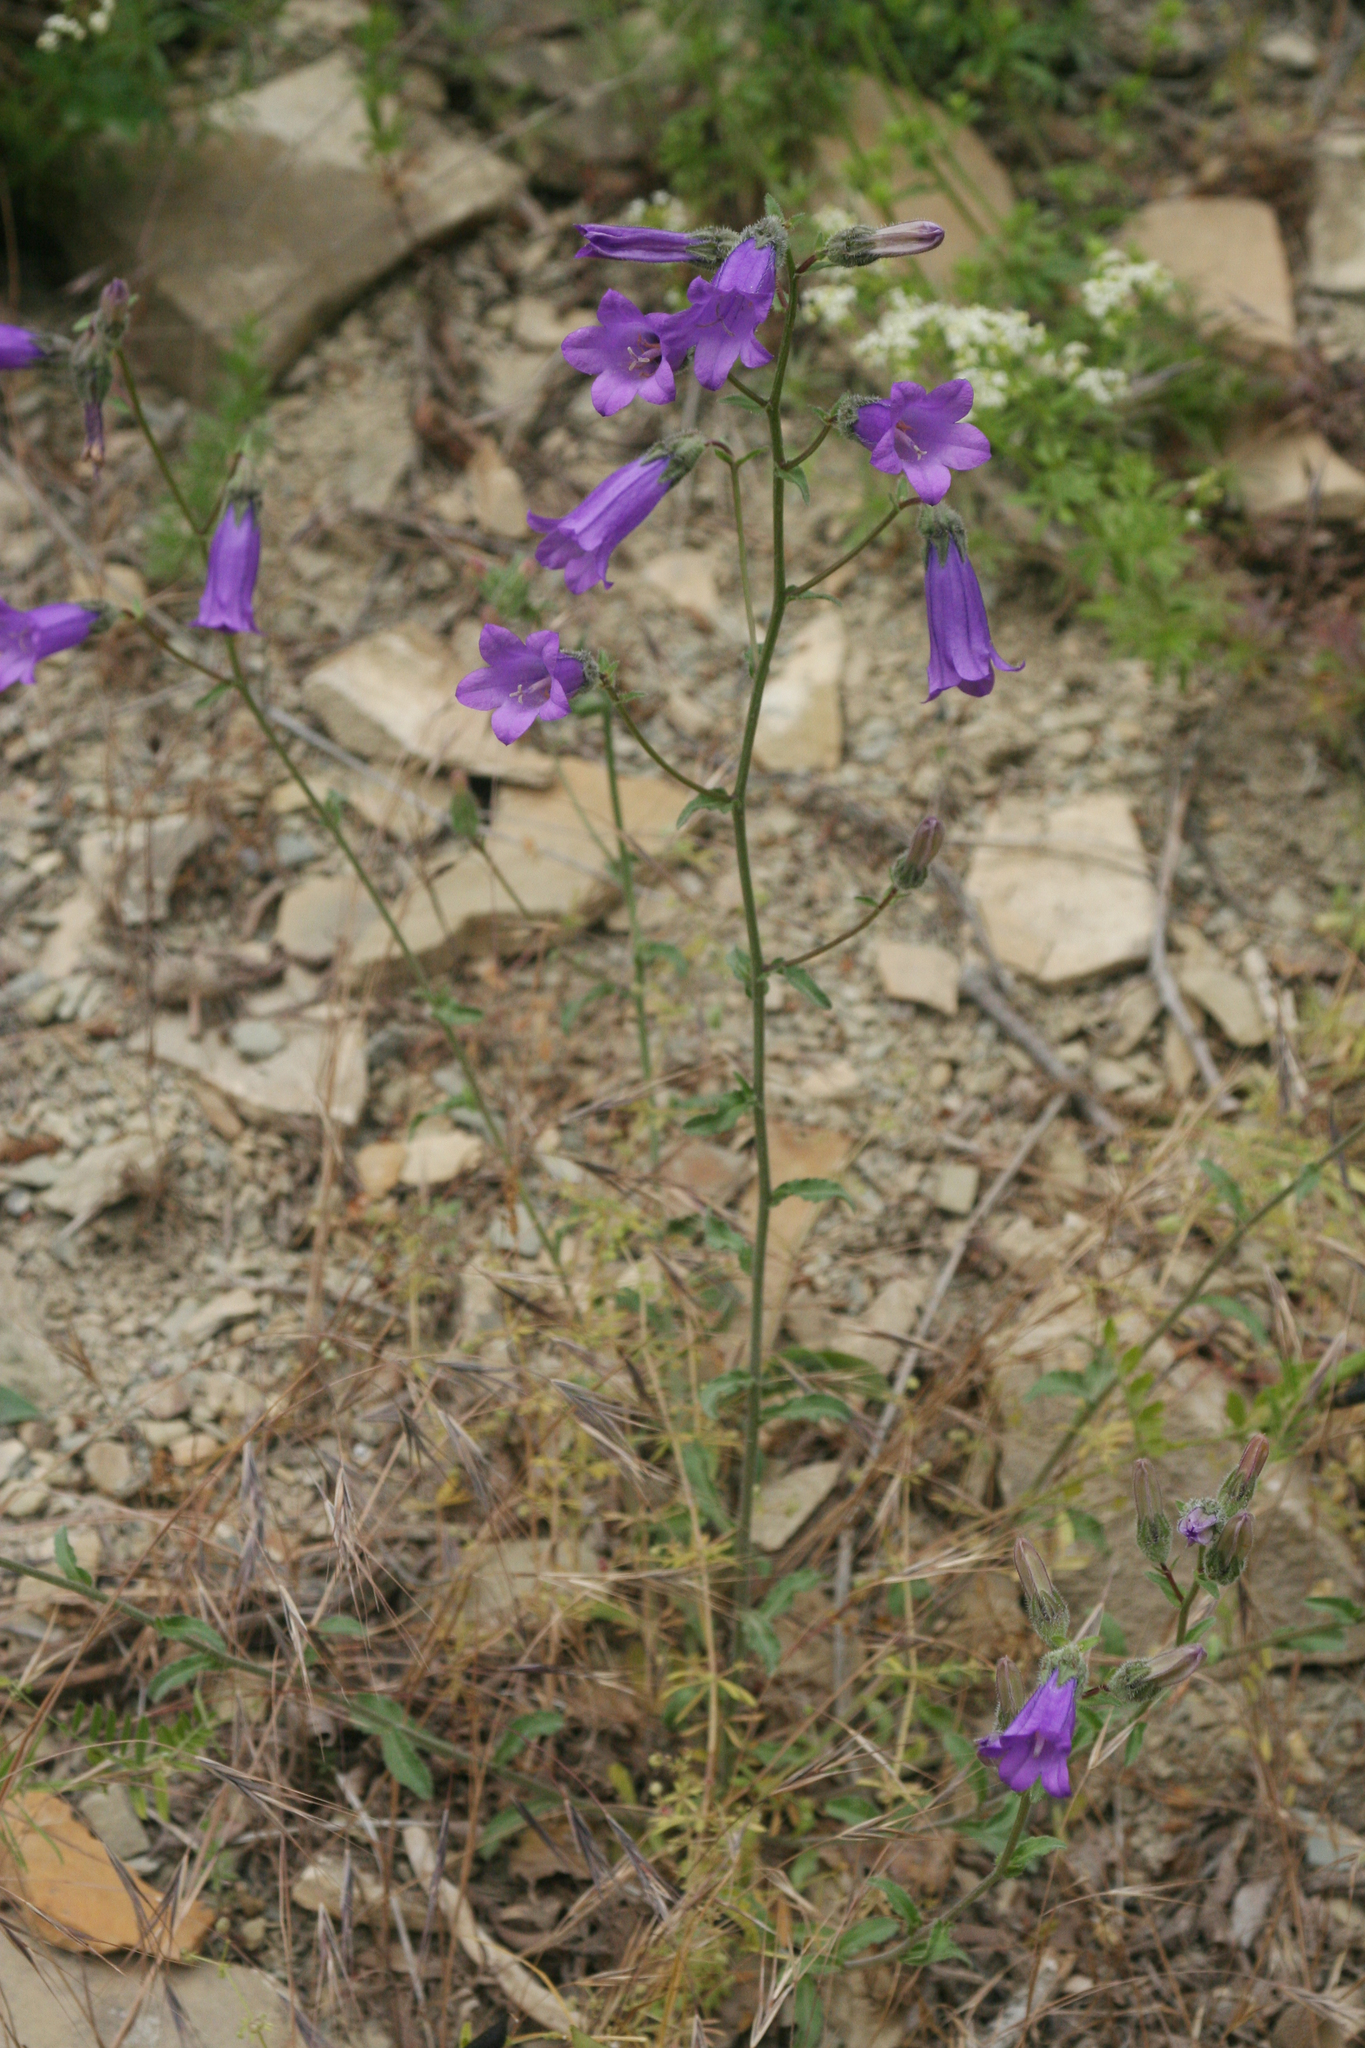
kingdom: Plantae
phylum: Tracheophyta
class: Magnoliopsida
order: Asterales
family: Campanulaceae
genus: Campanula
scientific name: Campanula komarovii
